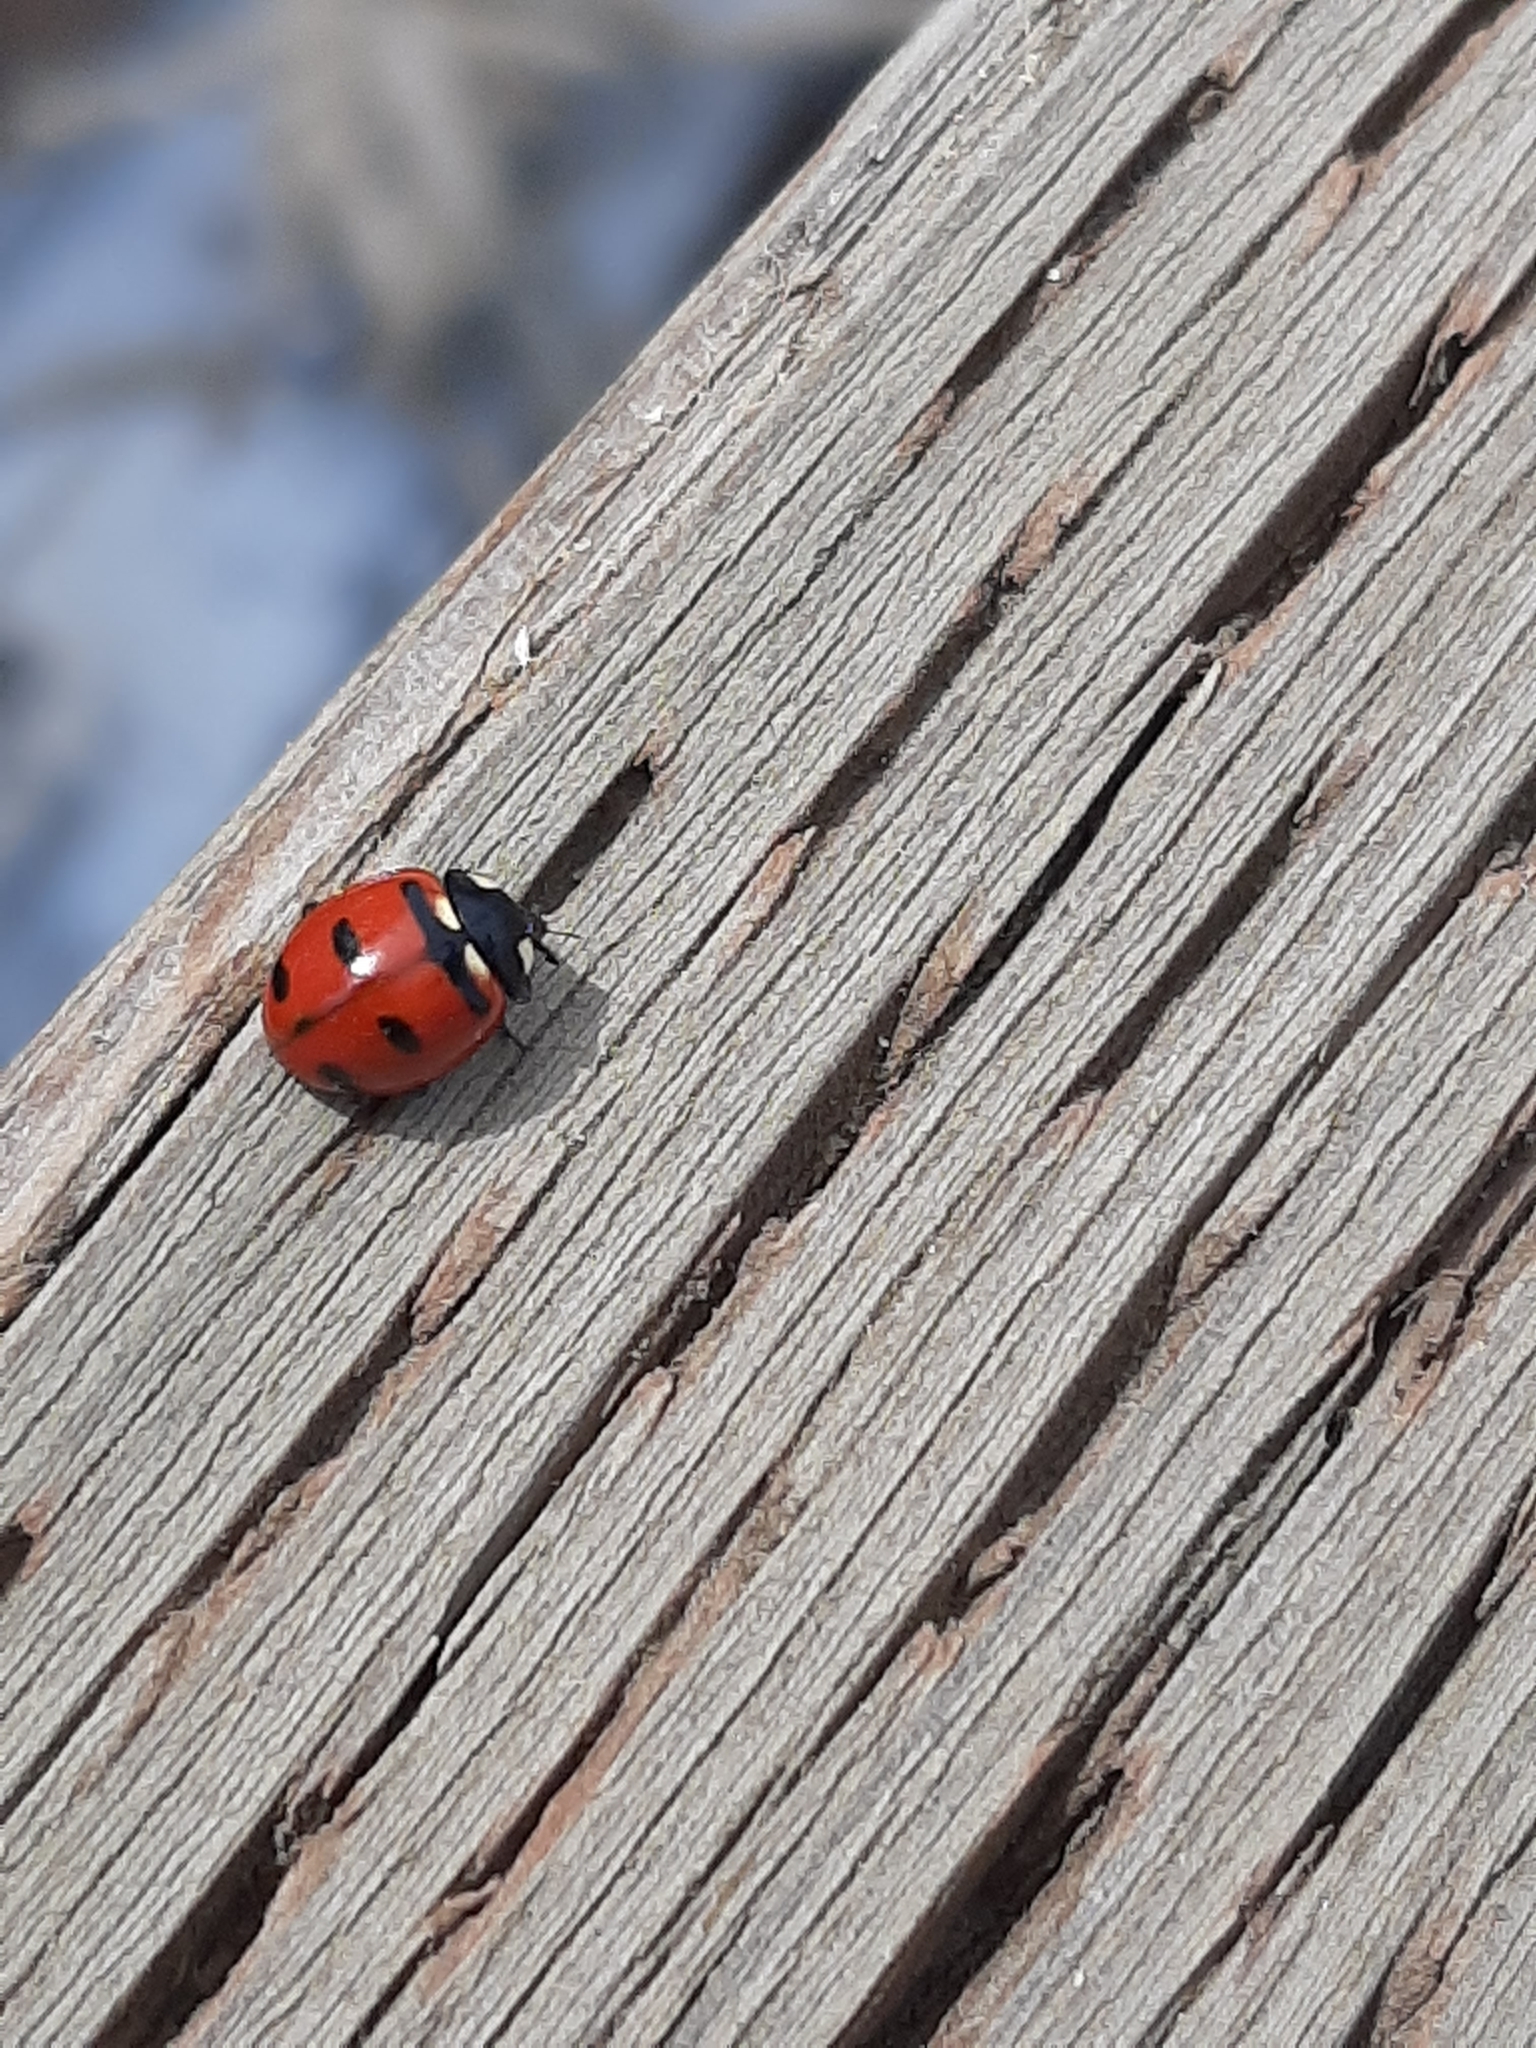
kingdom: Animalia
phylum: Arthropoda
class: Insecta
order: Coleoptera
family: Coccinellidae
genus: Coccinella
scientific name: Coccinella transversoguttata
